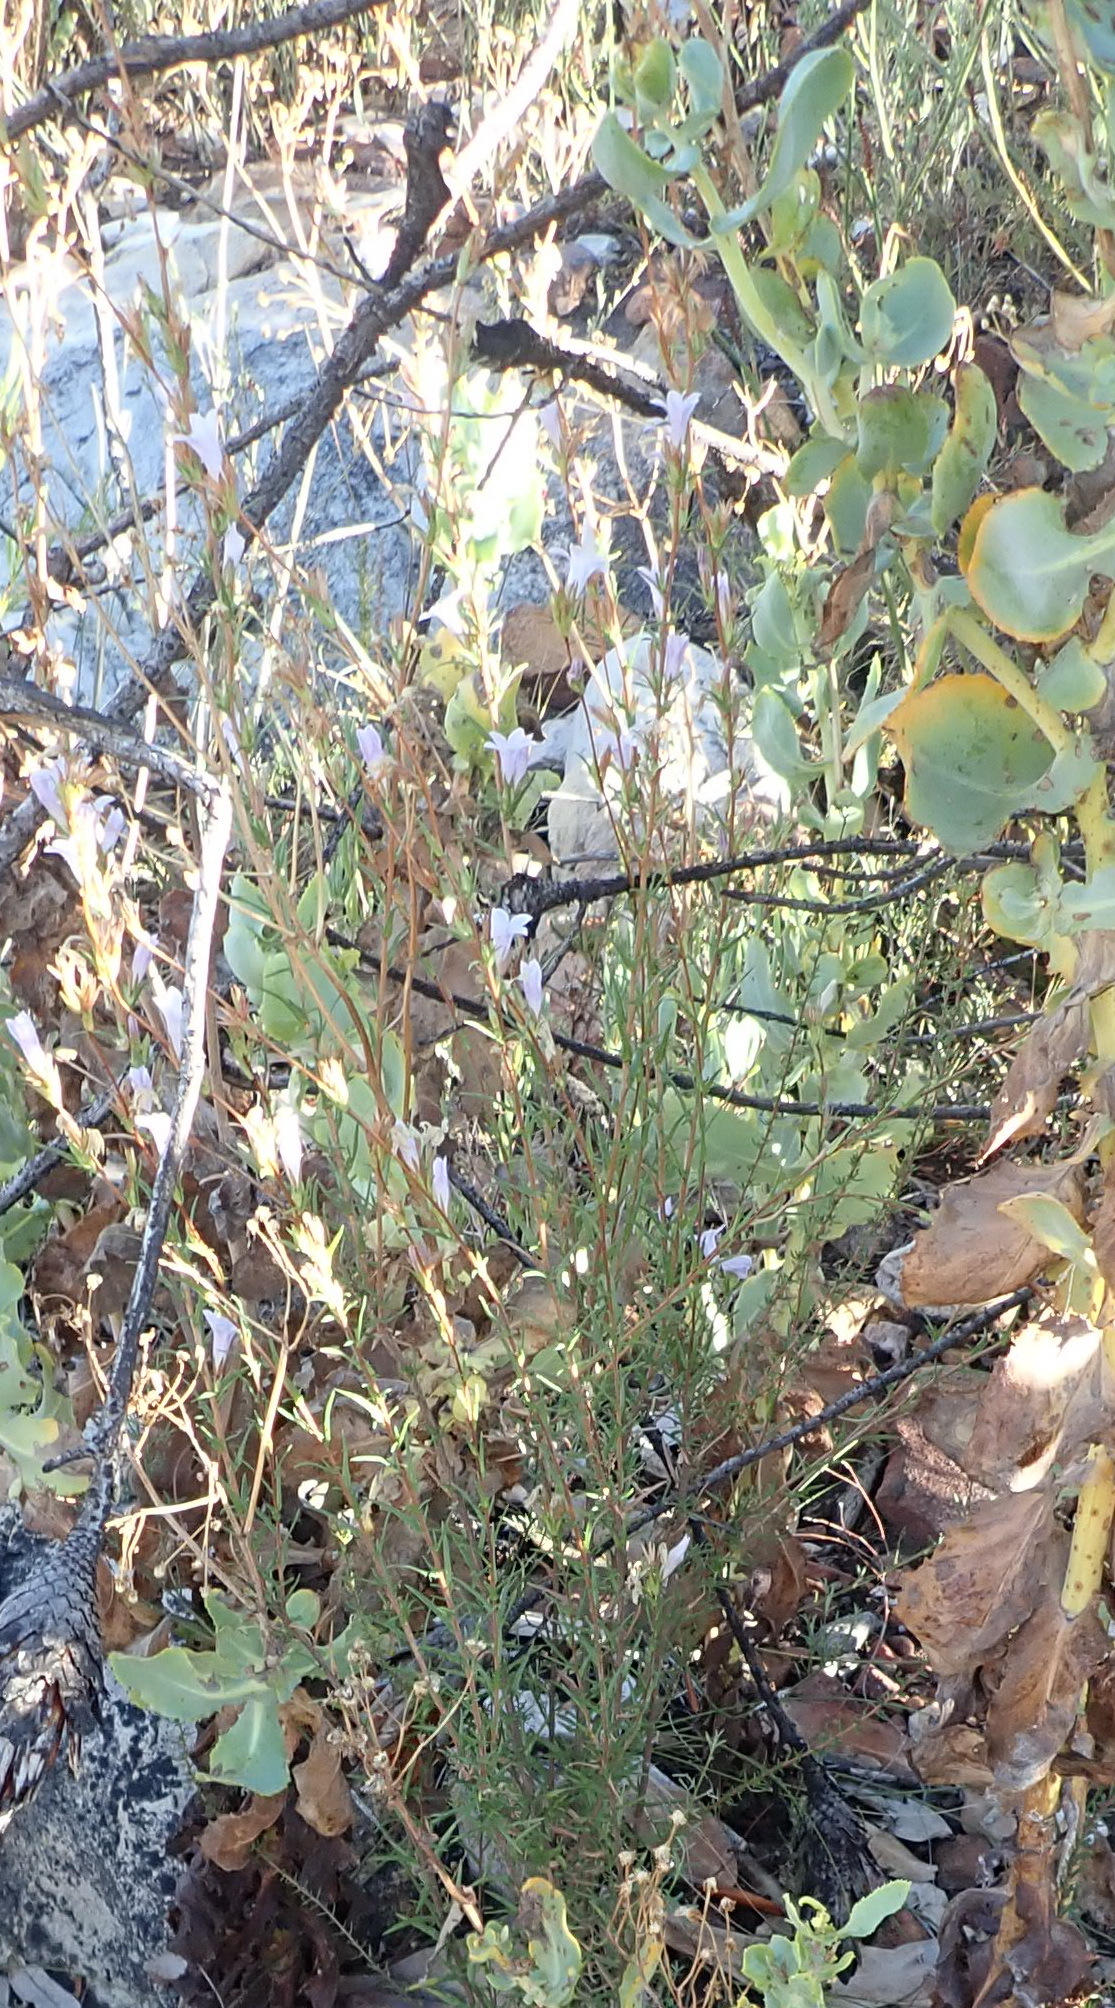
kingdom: Plantae
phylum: Tracheophyta
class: Magnoliopsida
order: Asterales
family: Campanulaceae
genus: Prismatocarpus
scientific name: Prismatocarpus candolleanus
